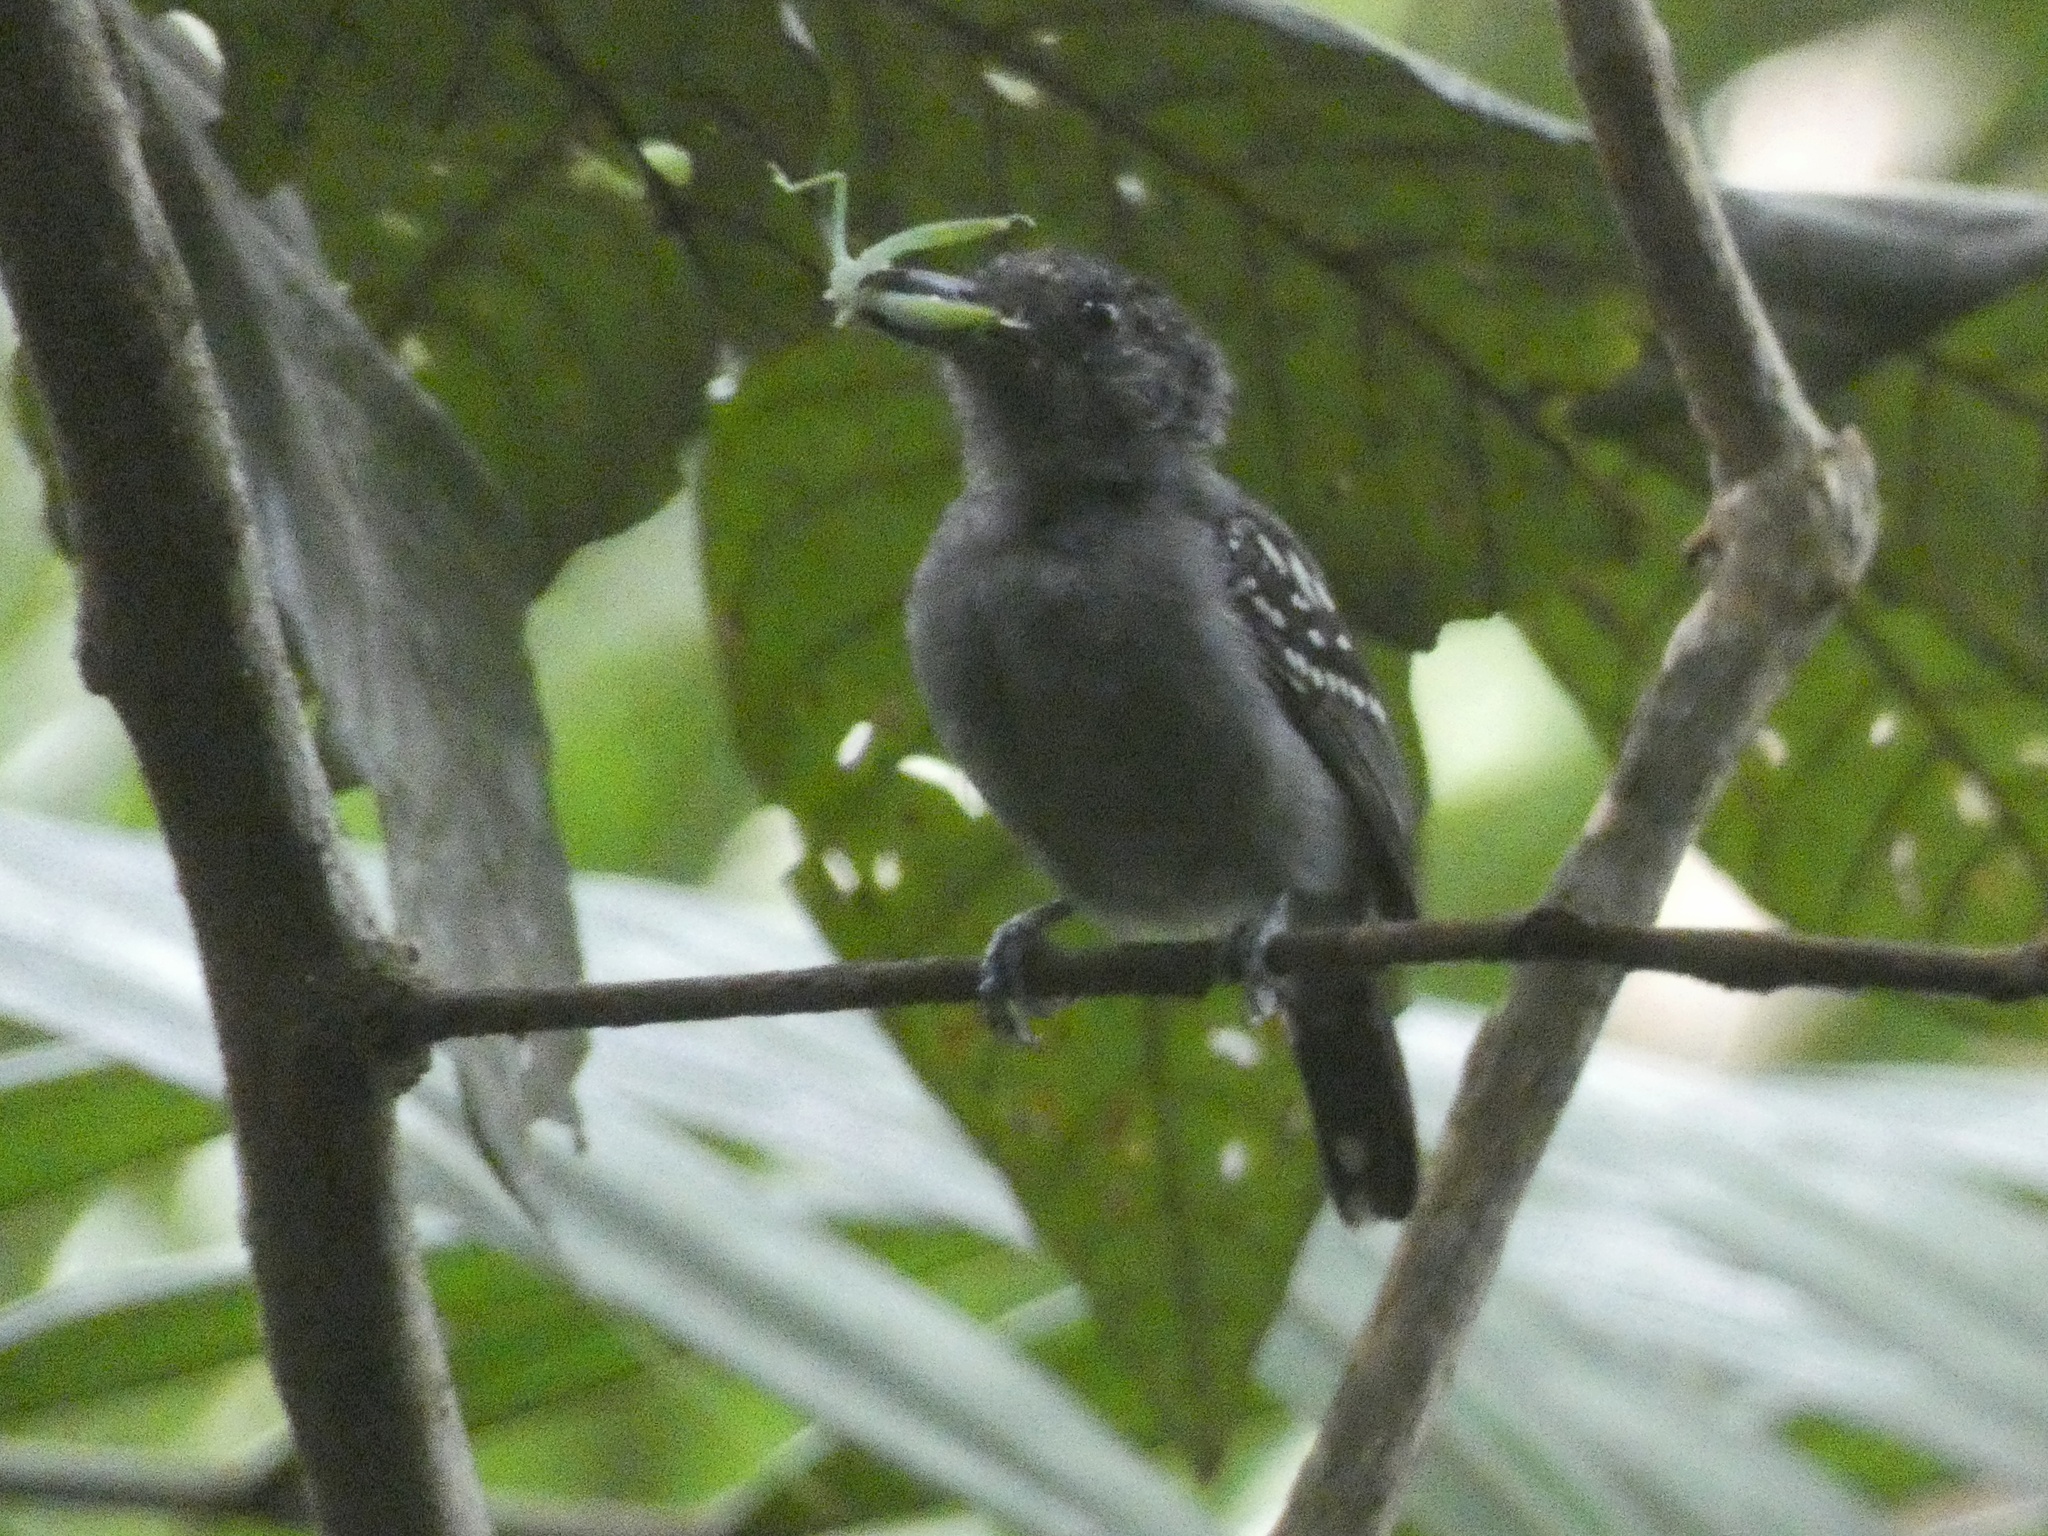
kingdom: Animalia
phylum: Chordata
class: Aves
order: Passeriformes
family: Thamnophilidae
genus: Thamnophilus
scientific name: Thamnophilus atrinucha
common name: Black-crowned antshrike
